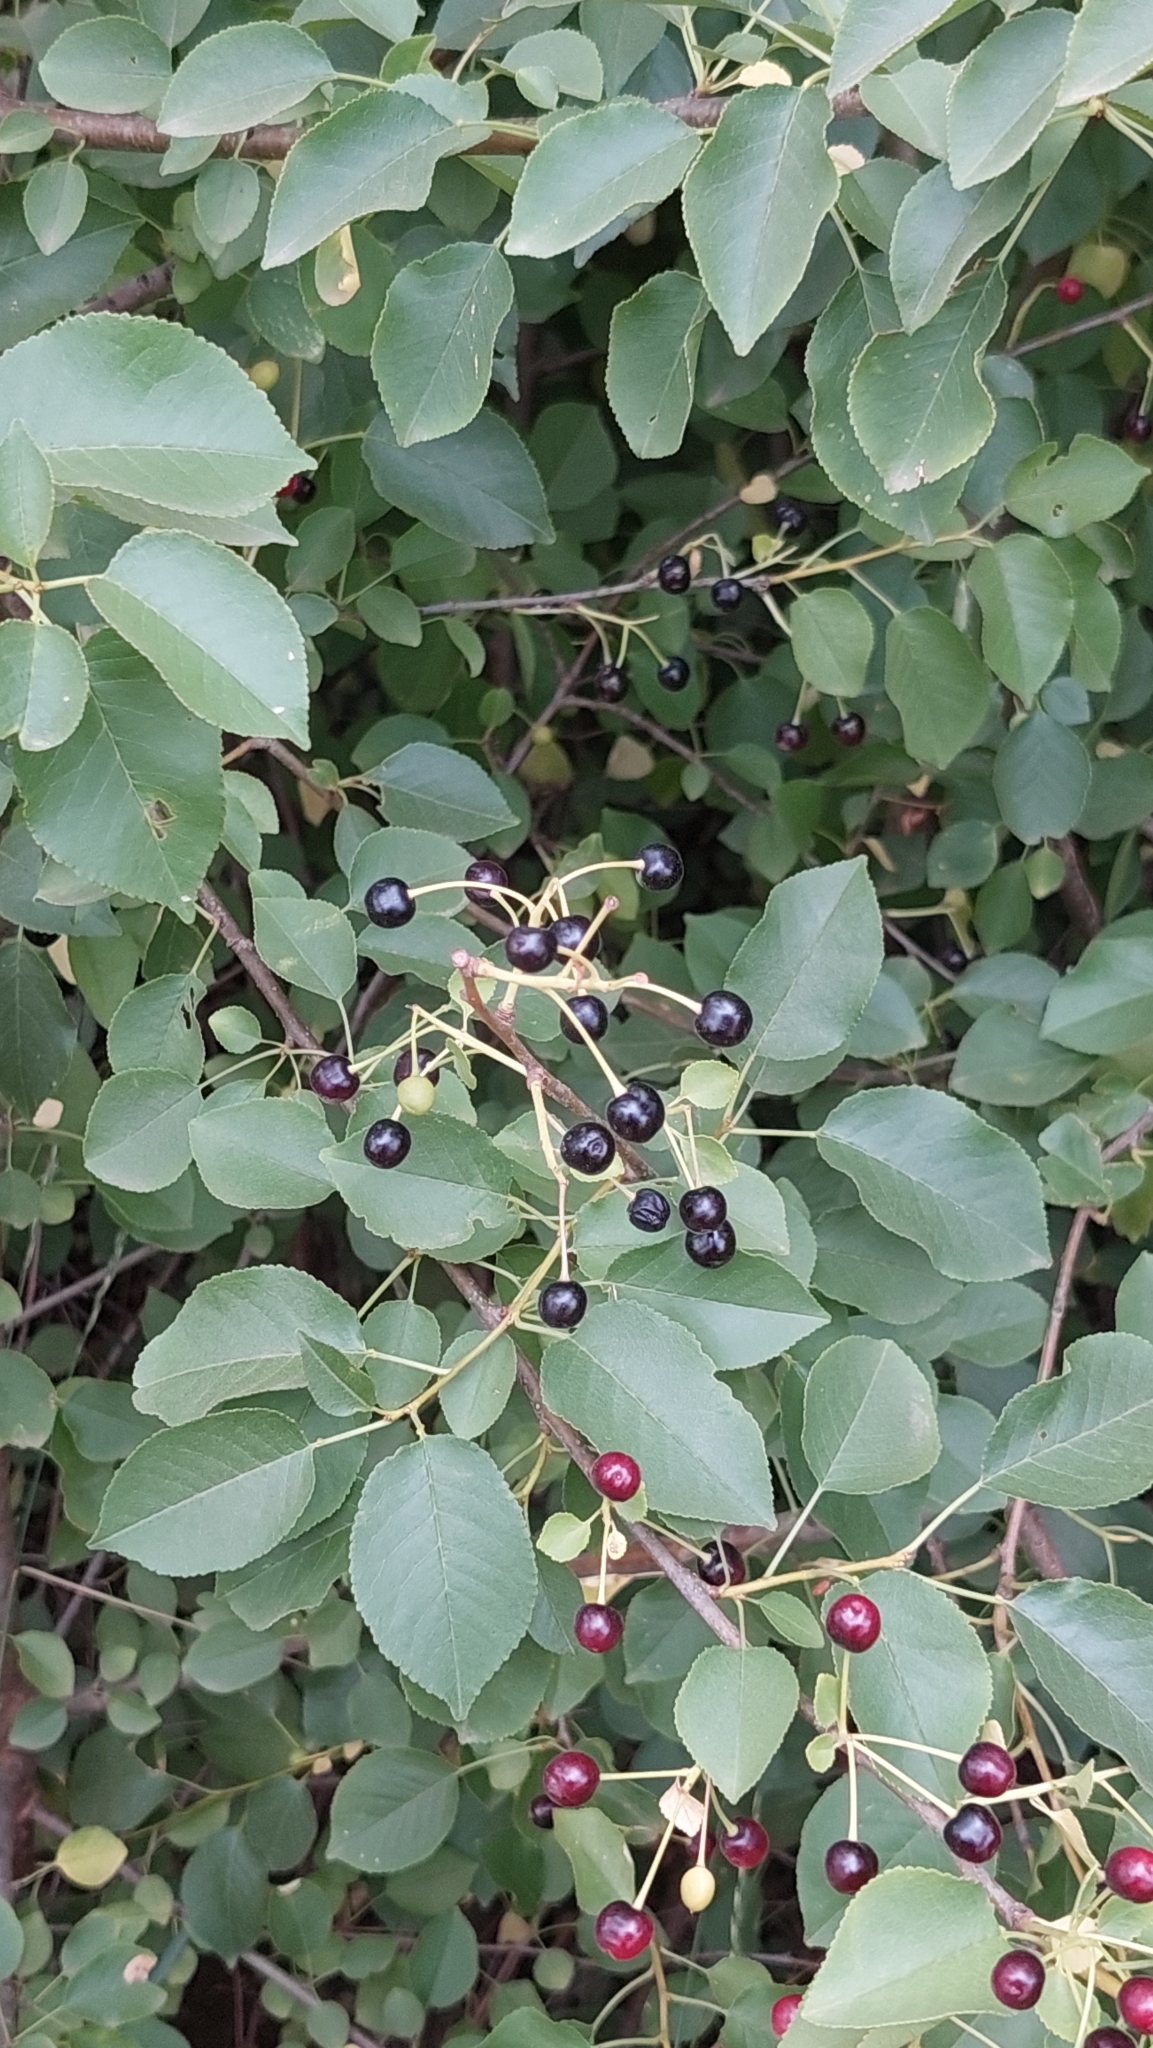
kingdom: Plantae
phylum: Tracheophyta
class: Magnoliopsida
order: Rosales
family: Rosaceae
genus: Prunus
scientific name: Prunus mahaleb
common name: Mahaleb cherry
